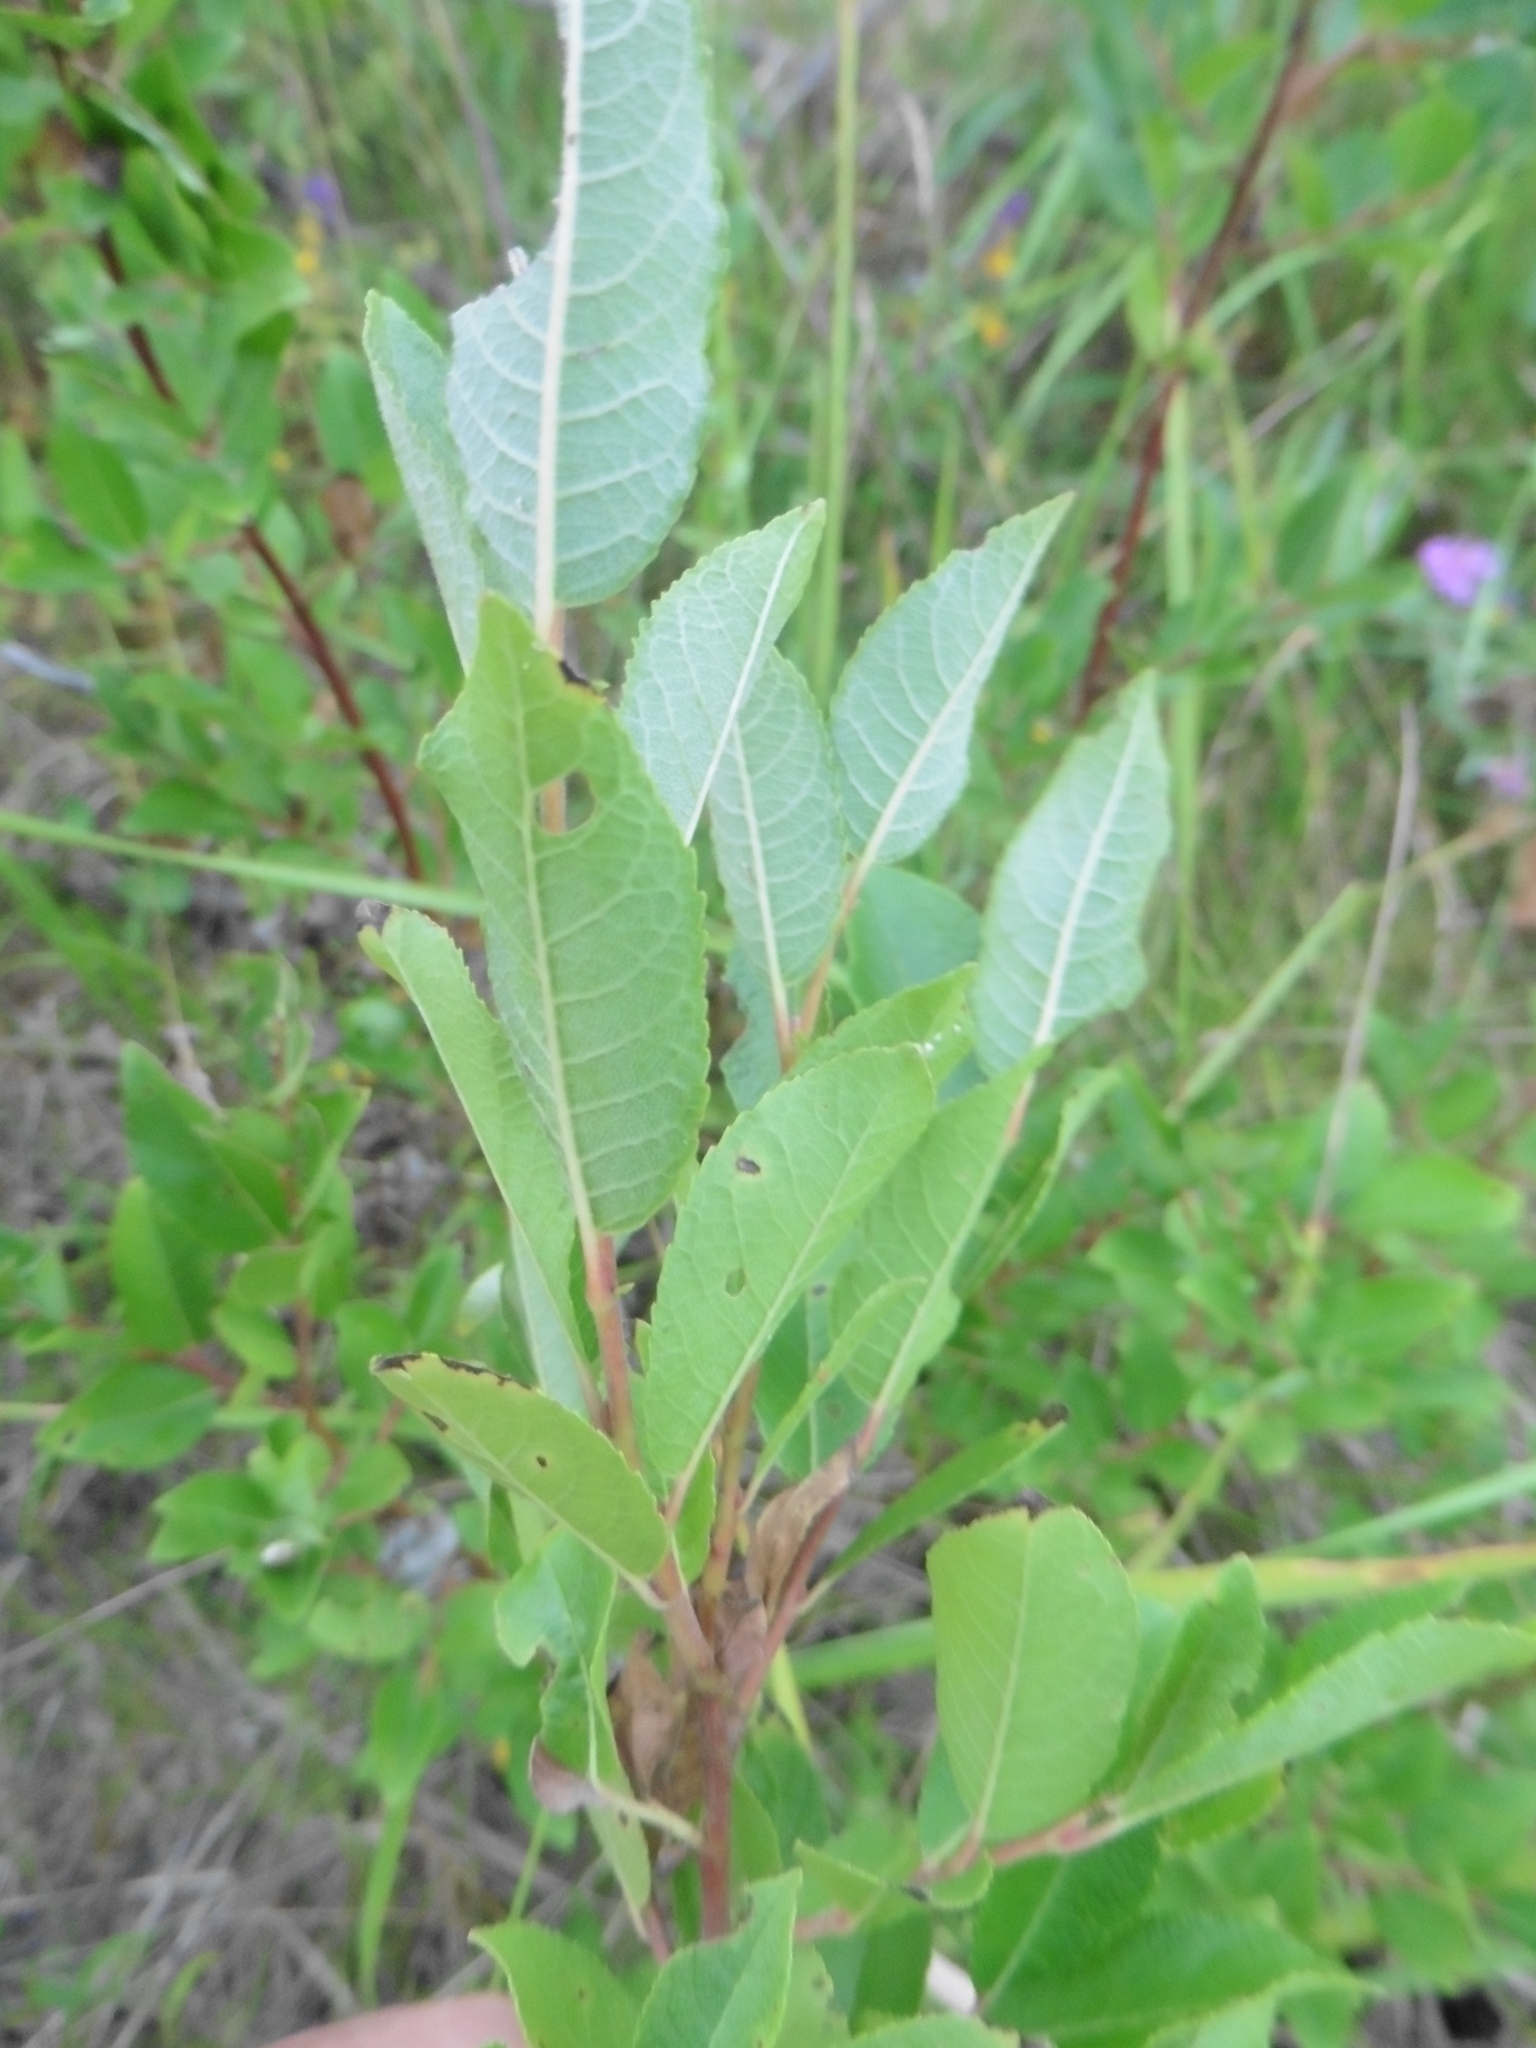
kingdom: Plantae
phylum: Tracheophyta
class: Magnoliopsida
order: Malpighiales
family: Salicaceae
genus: Salix
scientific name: Salix myrsinifolia
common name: Dark-leaved willow
